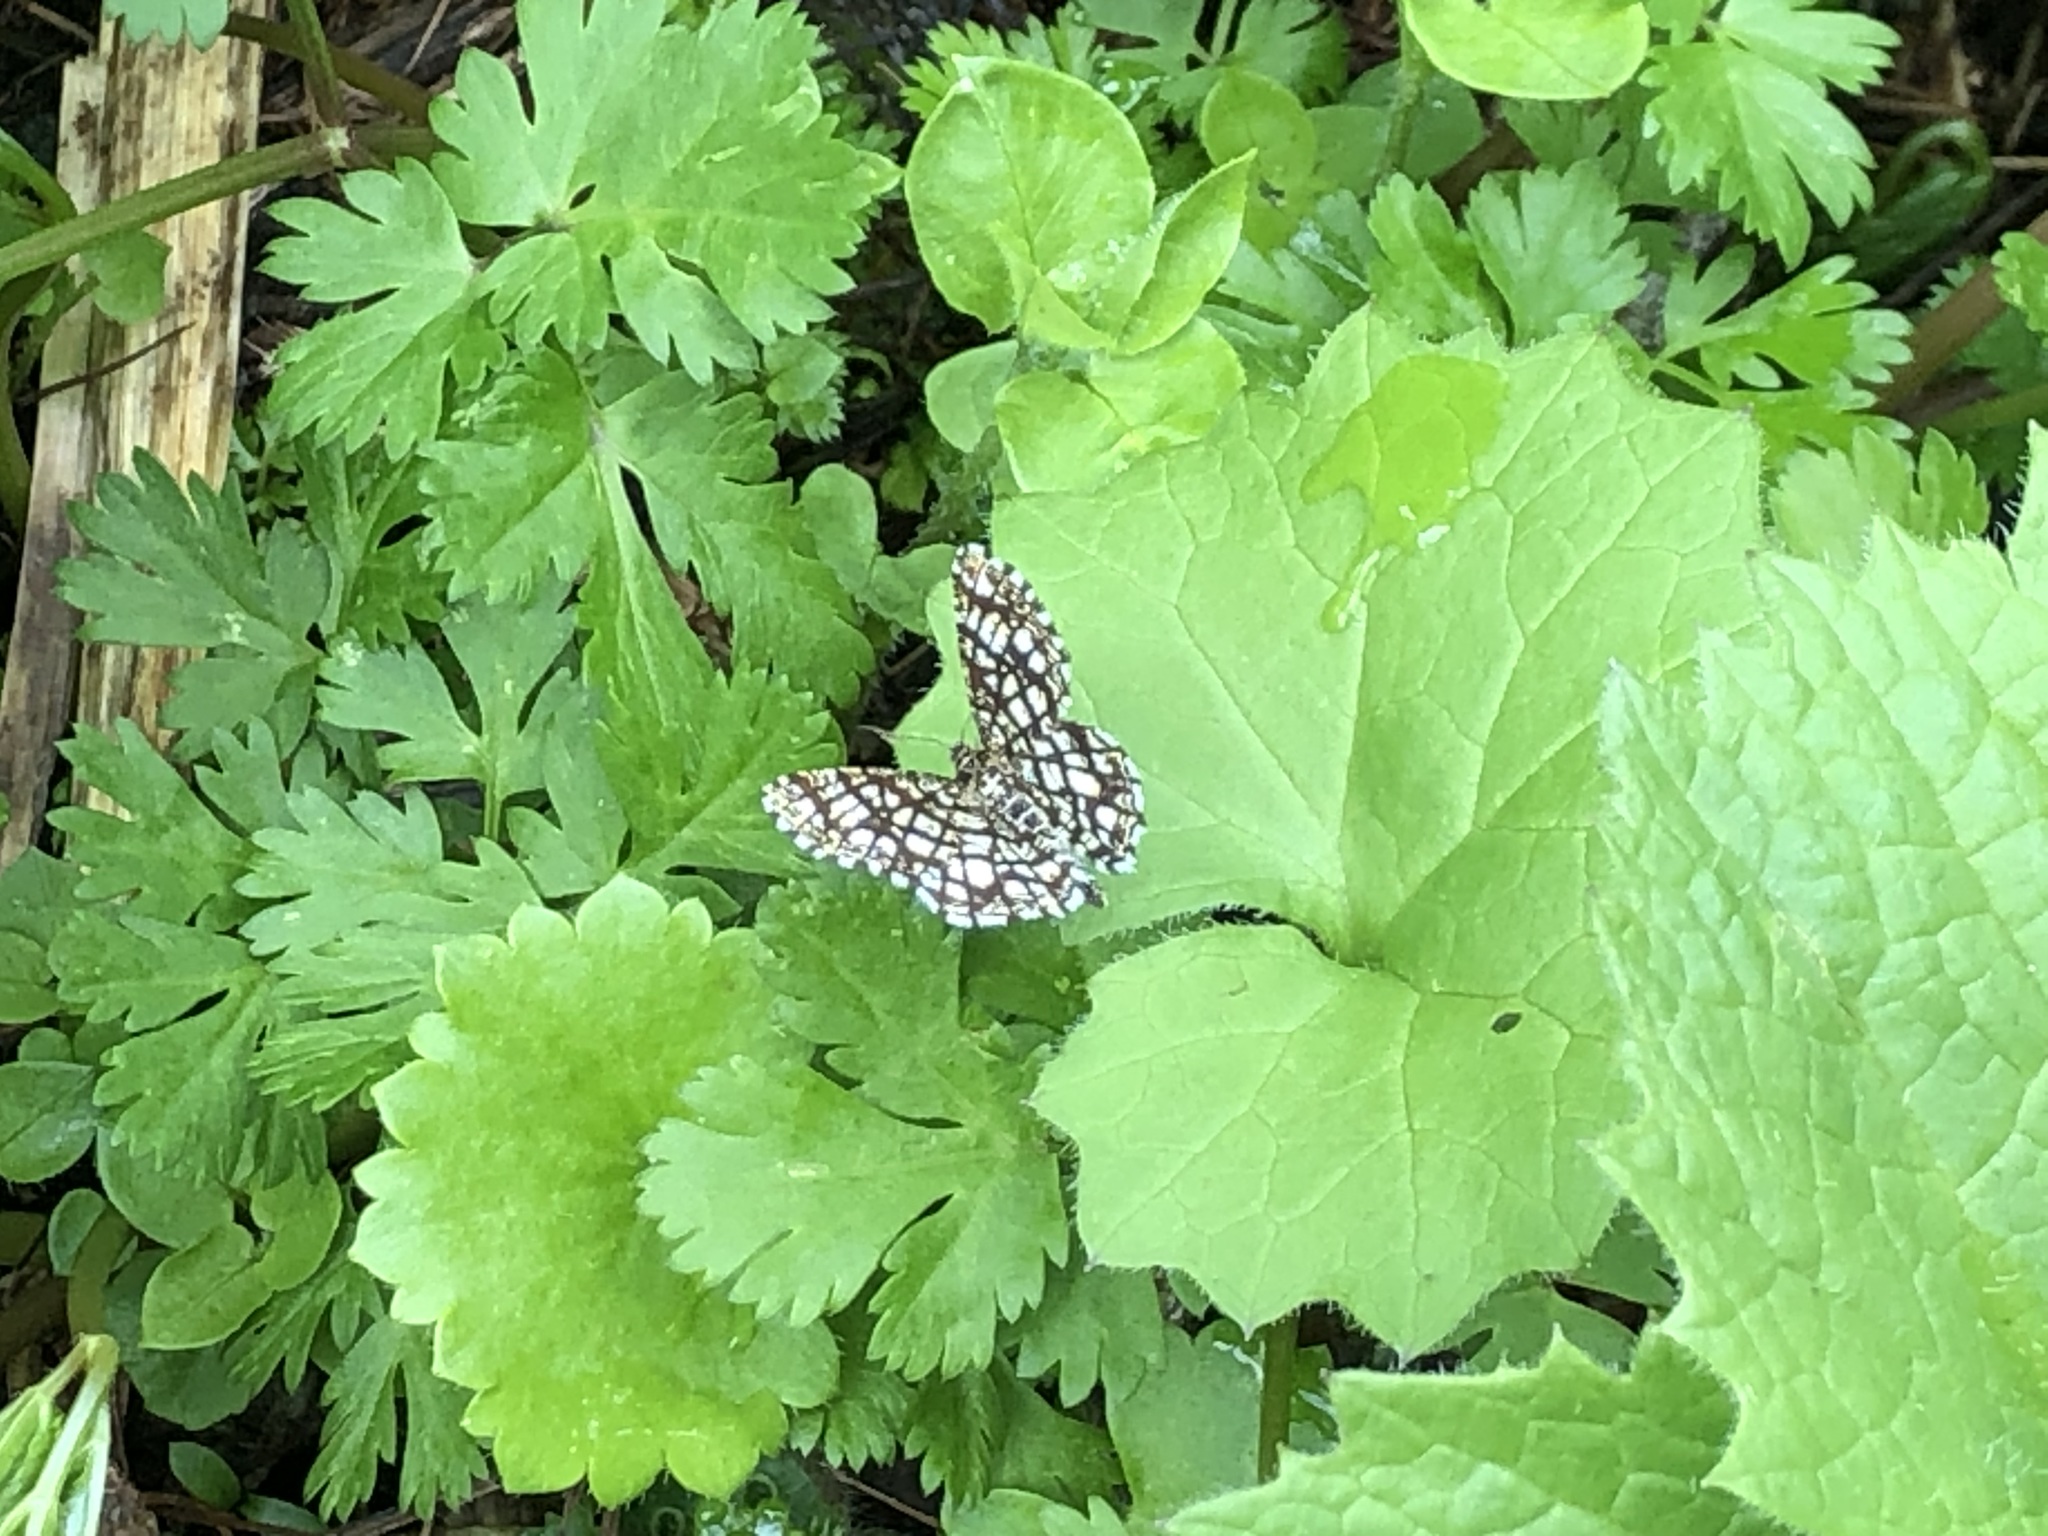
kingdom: Animalia
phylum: Arthropoda
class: Insecta
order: Lepidoptera
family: Geometridae
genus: Chiasmia
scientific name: Chiasmia clathrata
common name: Latticed heath
